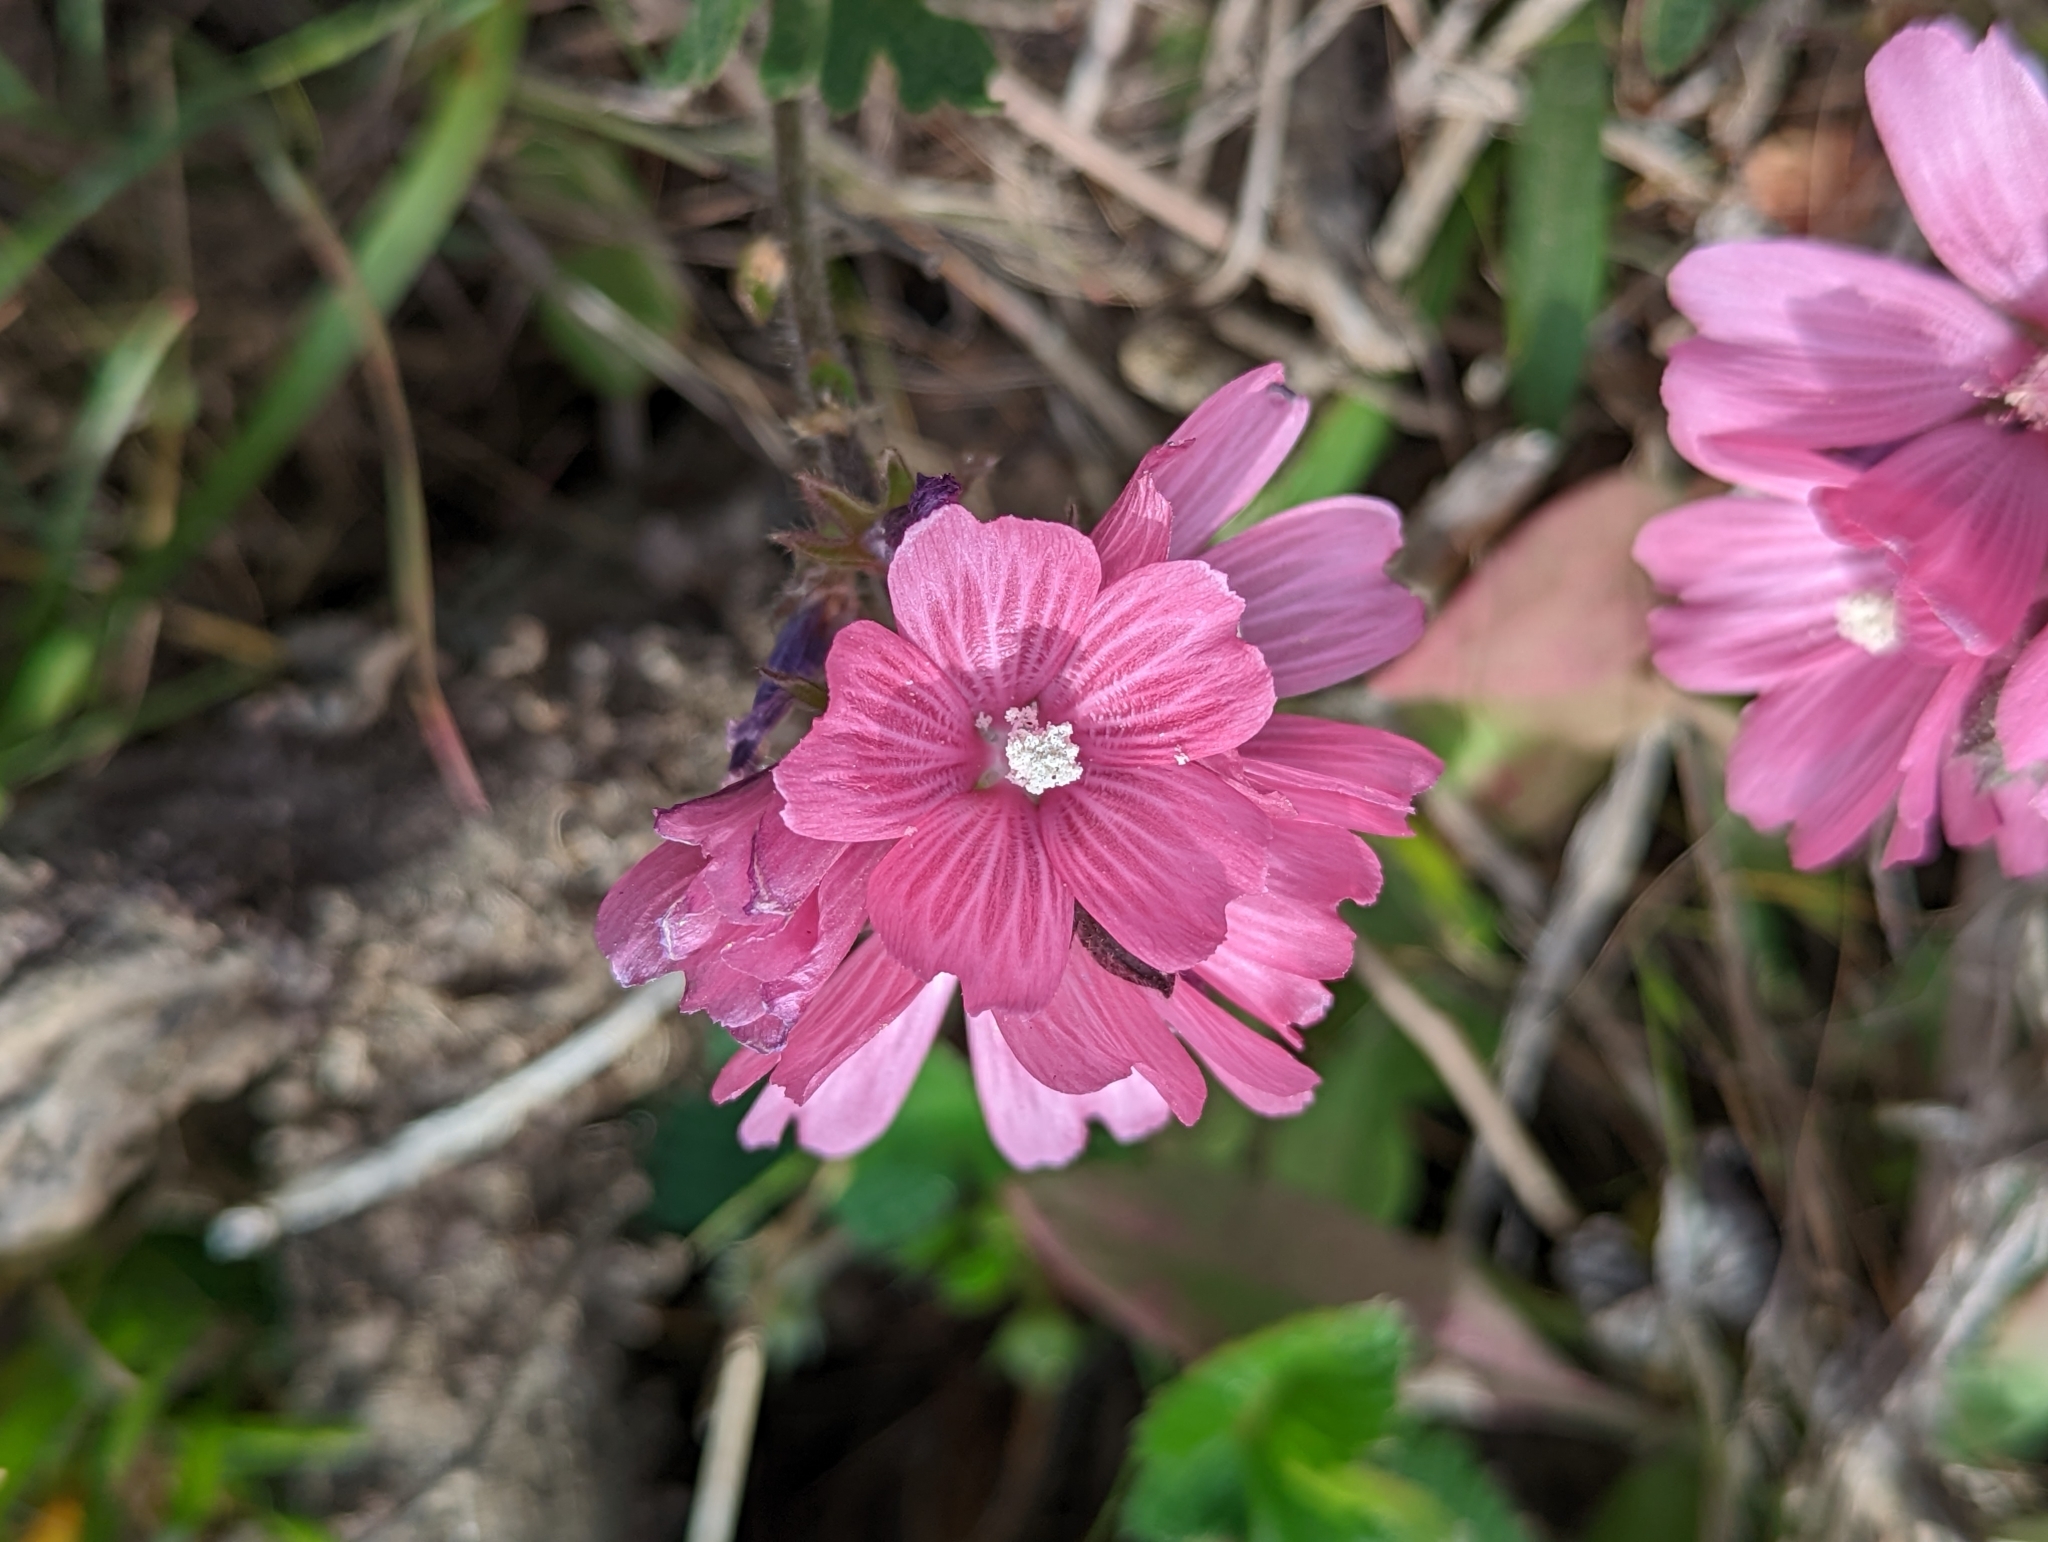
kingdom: Plantae
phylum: Tracheophyta
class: Magnoliopsida
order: Malvales
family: Malvaceae
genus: Sidalcea
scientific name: Sidalcea malviflora
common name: Greek mallow
